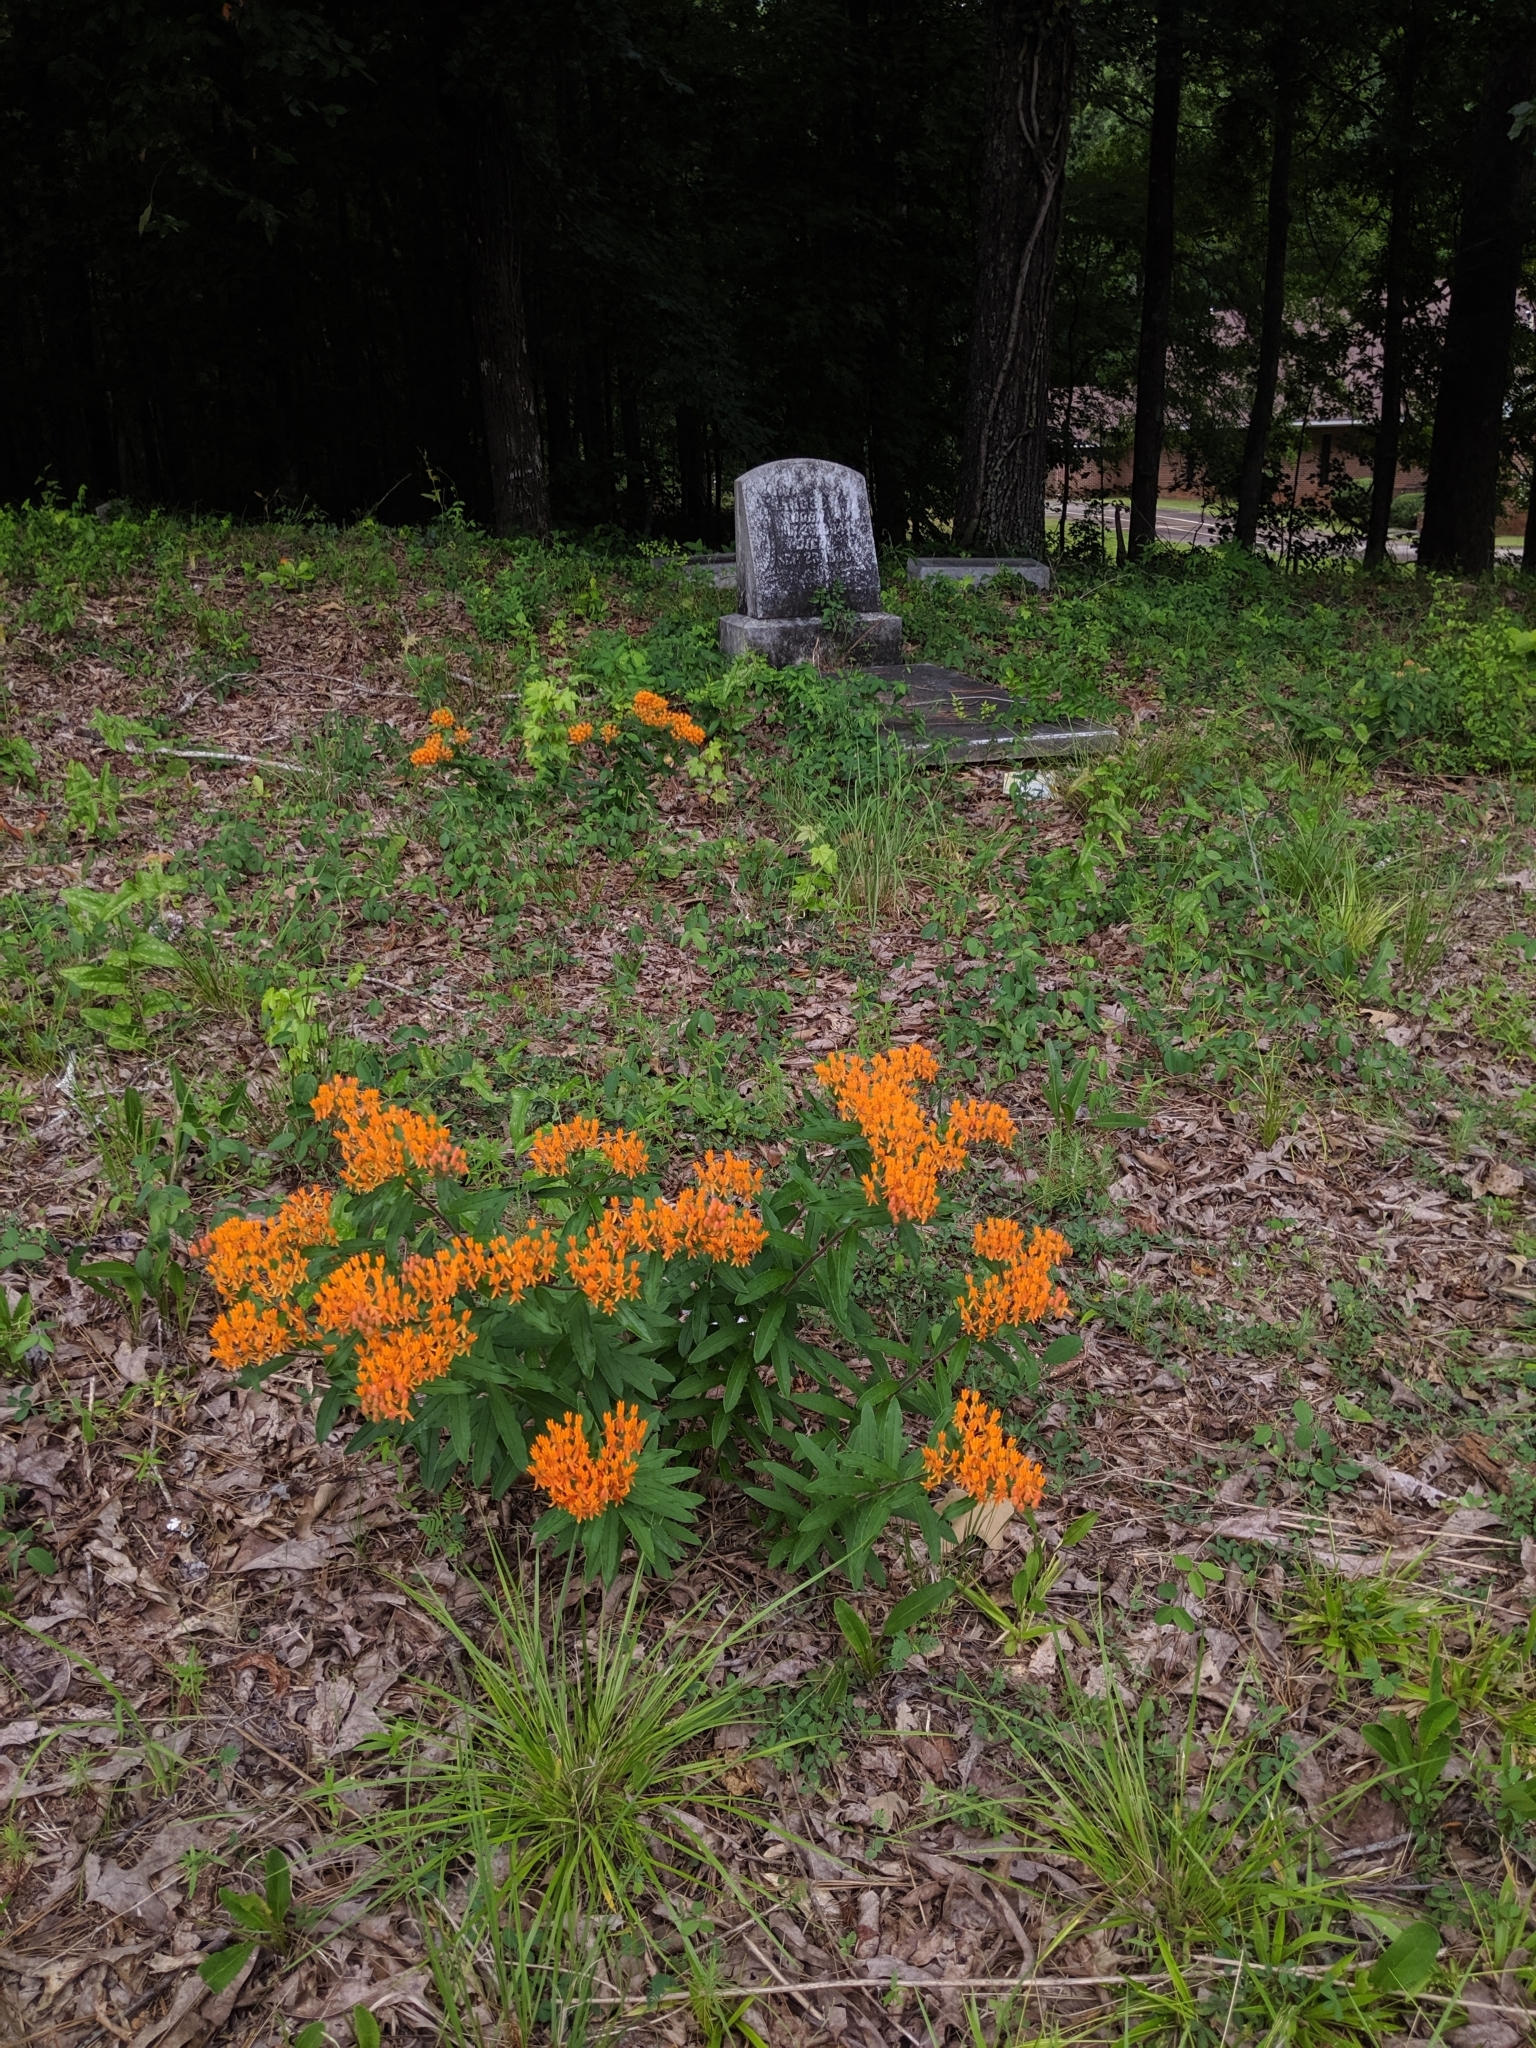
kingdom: Plantae
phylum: Tracheophyta
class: Magnoliopsida
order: Gentianales
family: Apocynaceae
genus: Asclepias
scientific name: Asclepias tuberosa
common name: Butterfly milkweed
